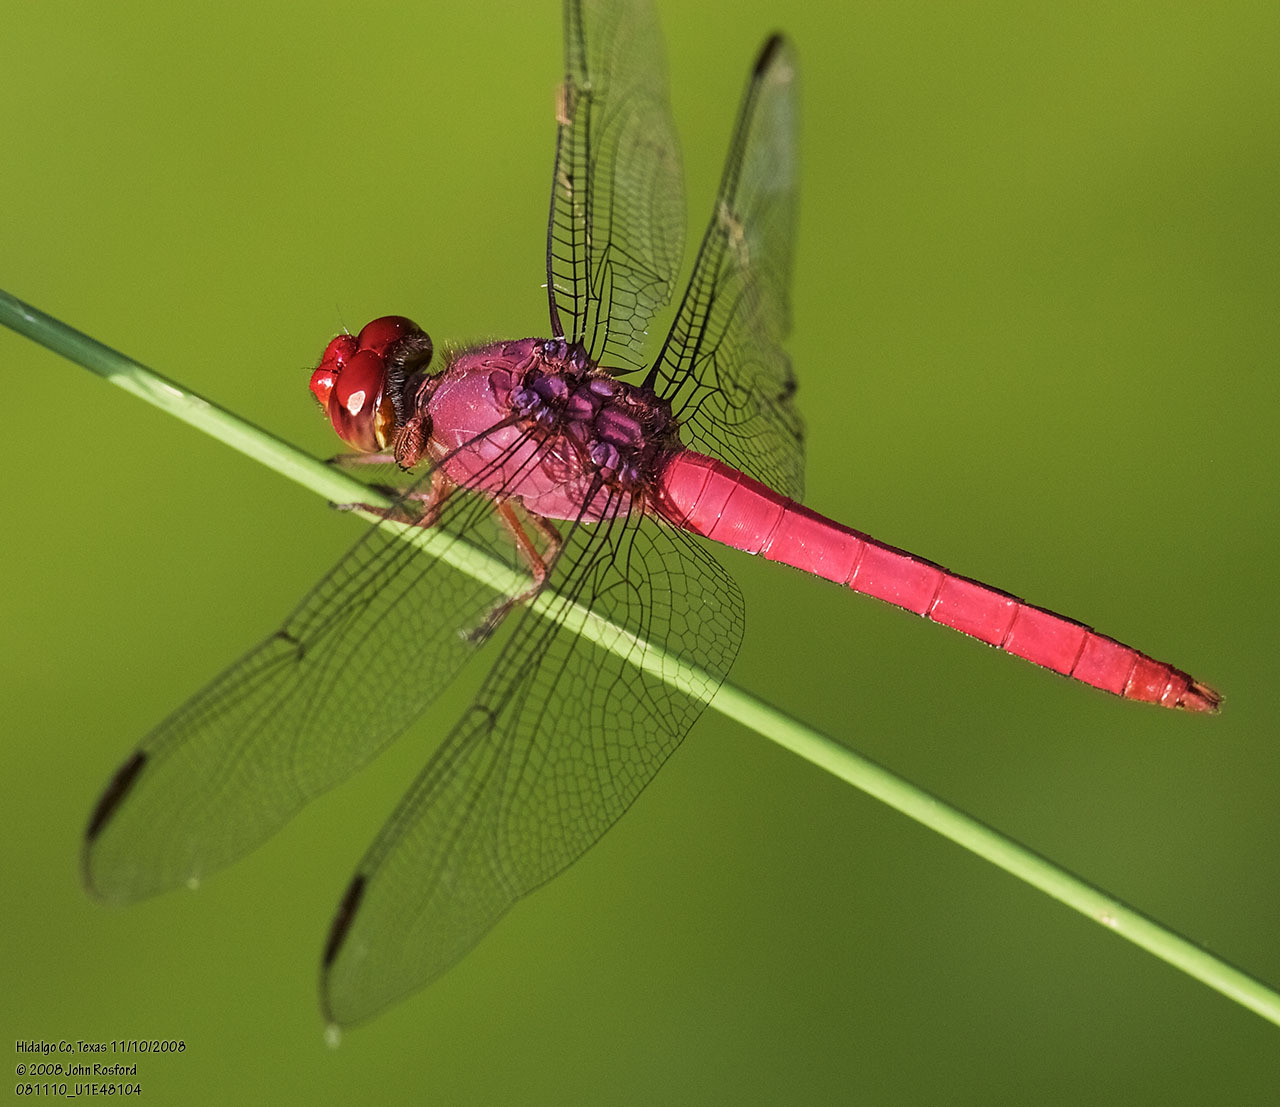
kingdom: Animalia
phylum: Arthropoda
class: Insecta
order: Odonata
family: Libellulidae
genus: Orthemis
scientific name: Orthemis discolor
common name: Carmine skimmer
